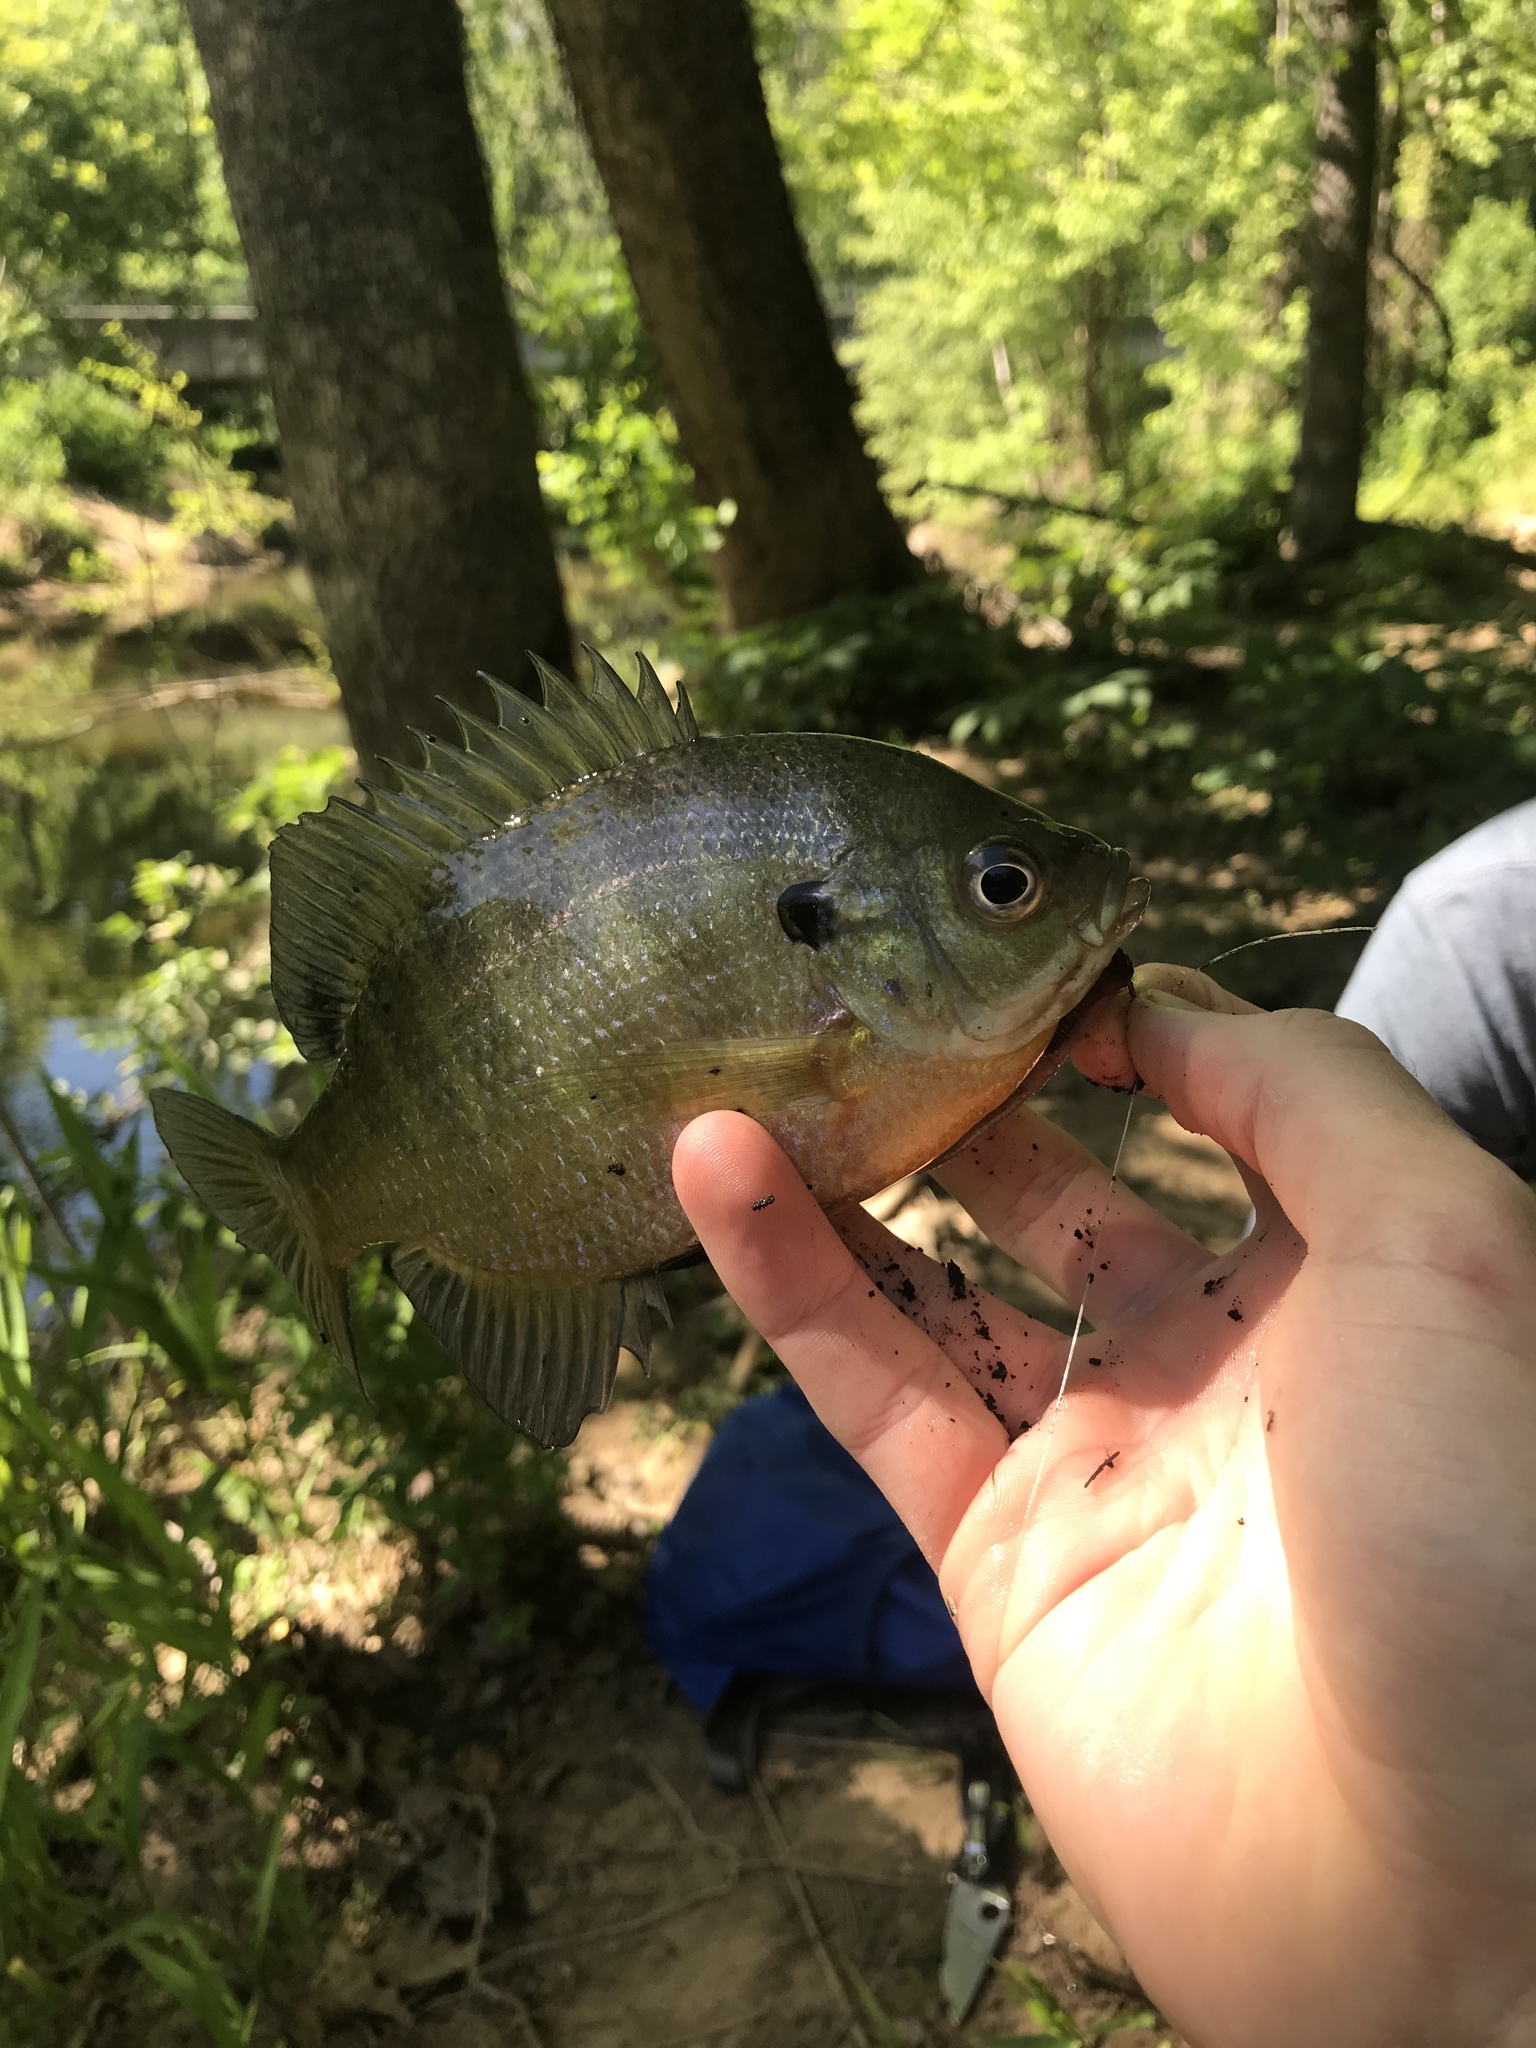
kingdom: Animalia
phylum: Chordata
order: Perciformes
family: Centrarchidae
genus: Lepomis
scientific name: Lepomis macrochirus
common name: Bluegill
